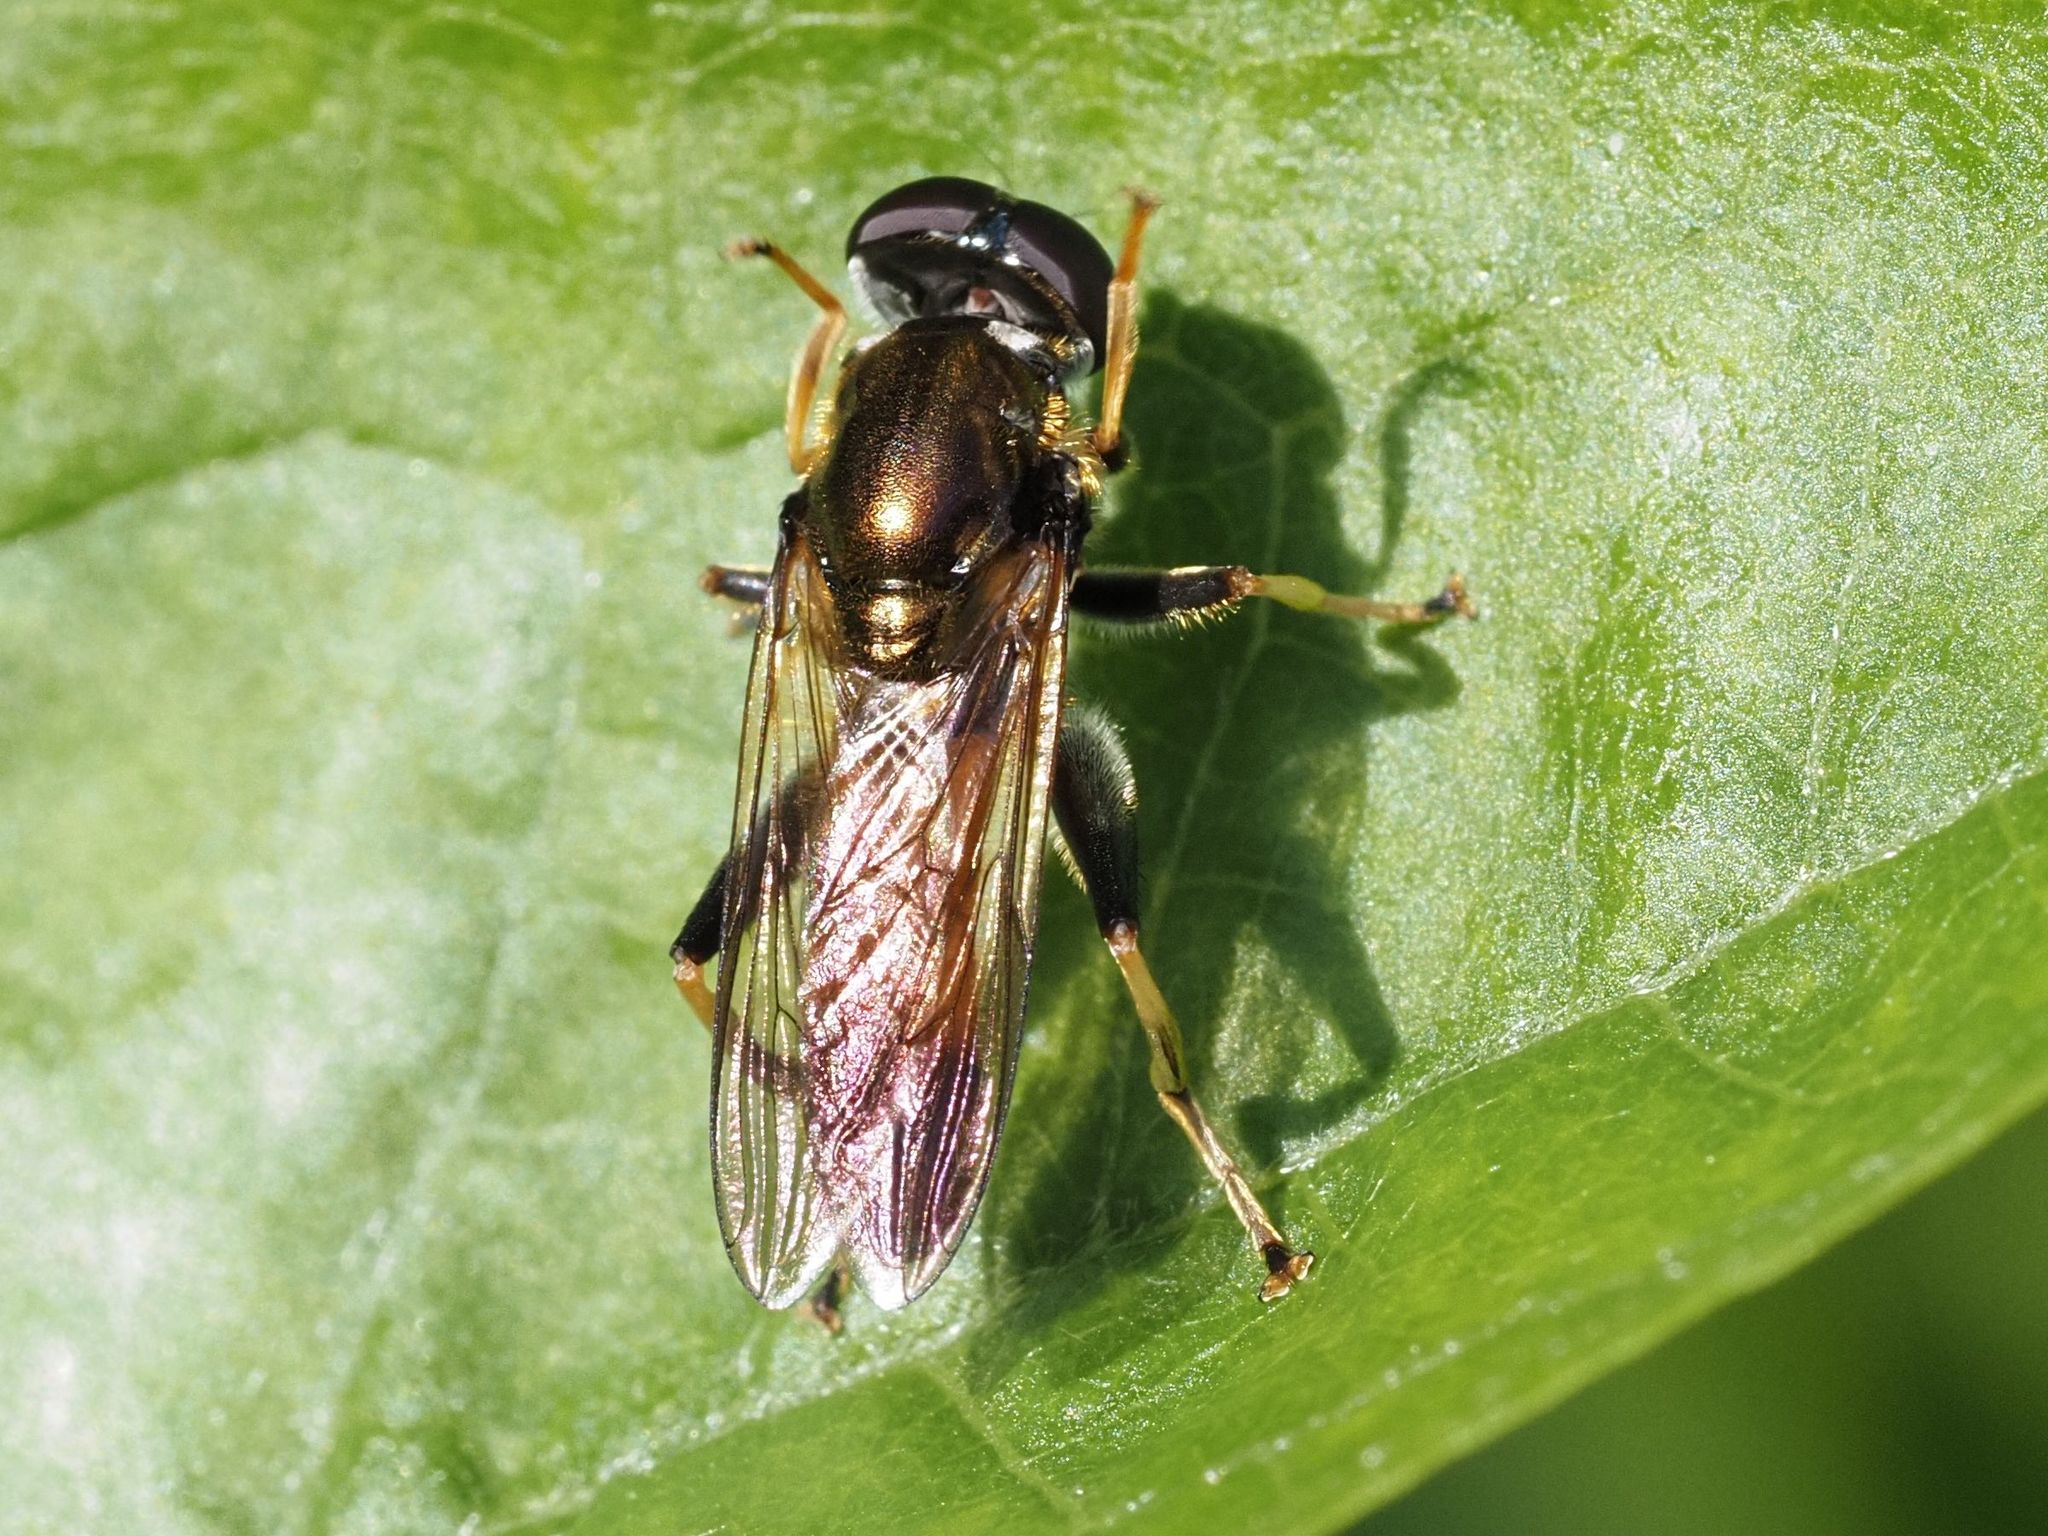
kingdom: Animalia
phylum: Arthropoda
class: Insecta
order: Diptera
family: Syrphidae
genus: Xylota
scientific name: Xylota segnis
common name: Brown-toed forest fly
